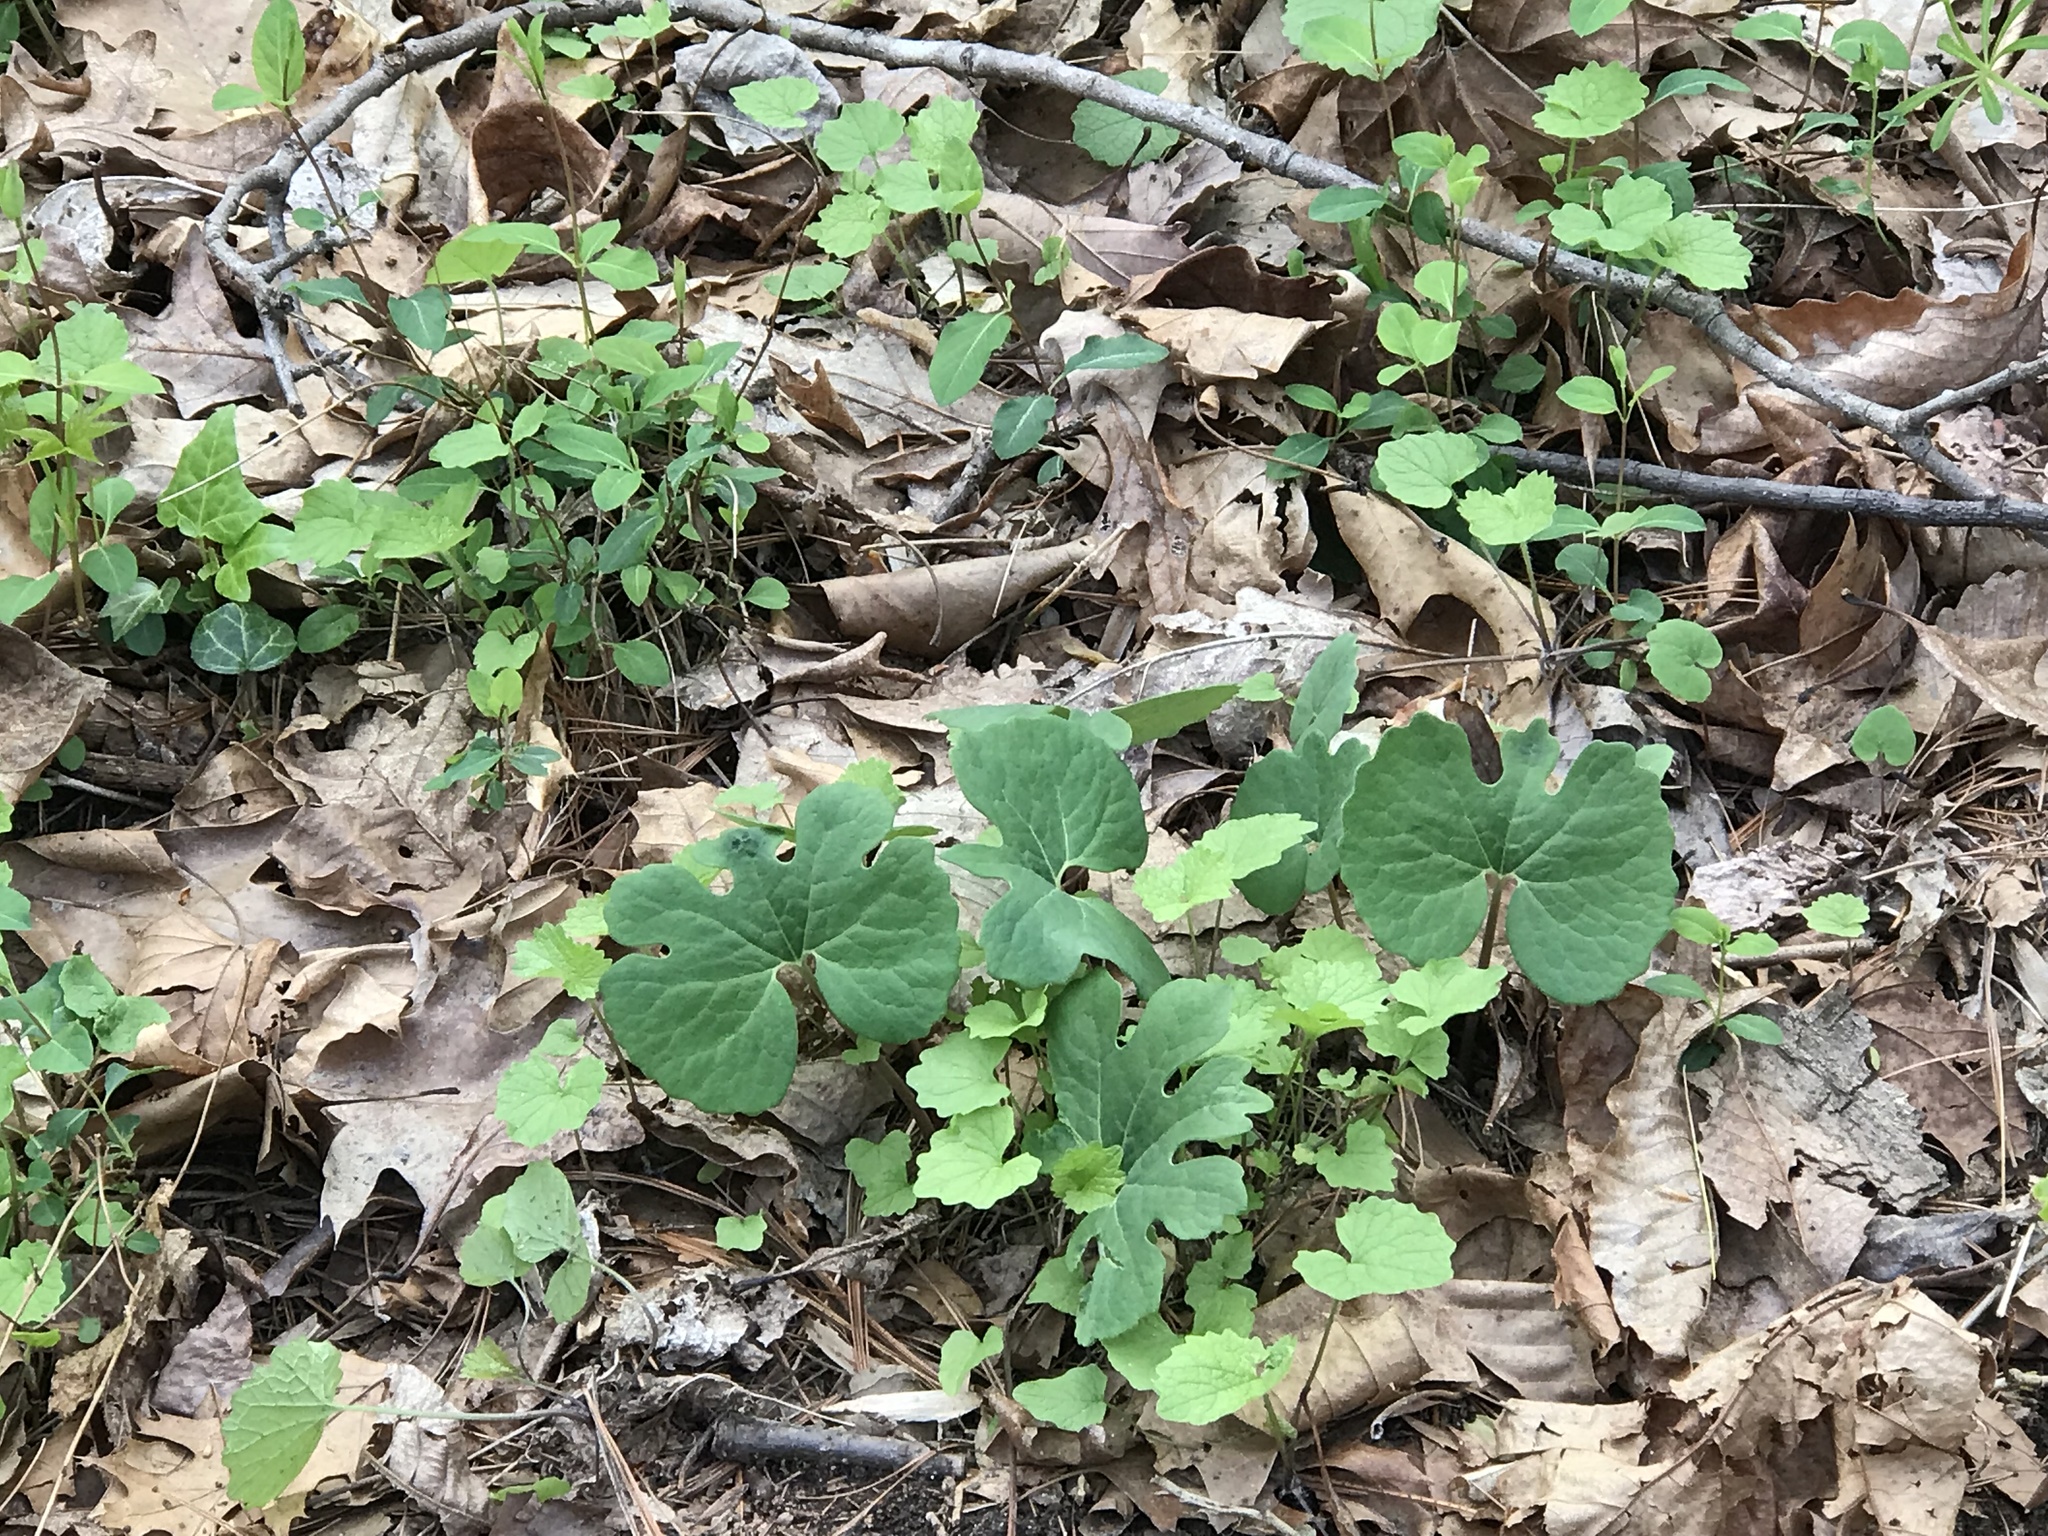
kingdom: Plantae
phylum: Tracheophyta
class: Magnoliopsida
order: Ranunculales
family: Papaveraceae
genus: Sanguinaria
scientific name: Sanguinaria canadensis
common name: Bloodroot
